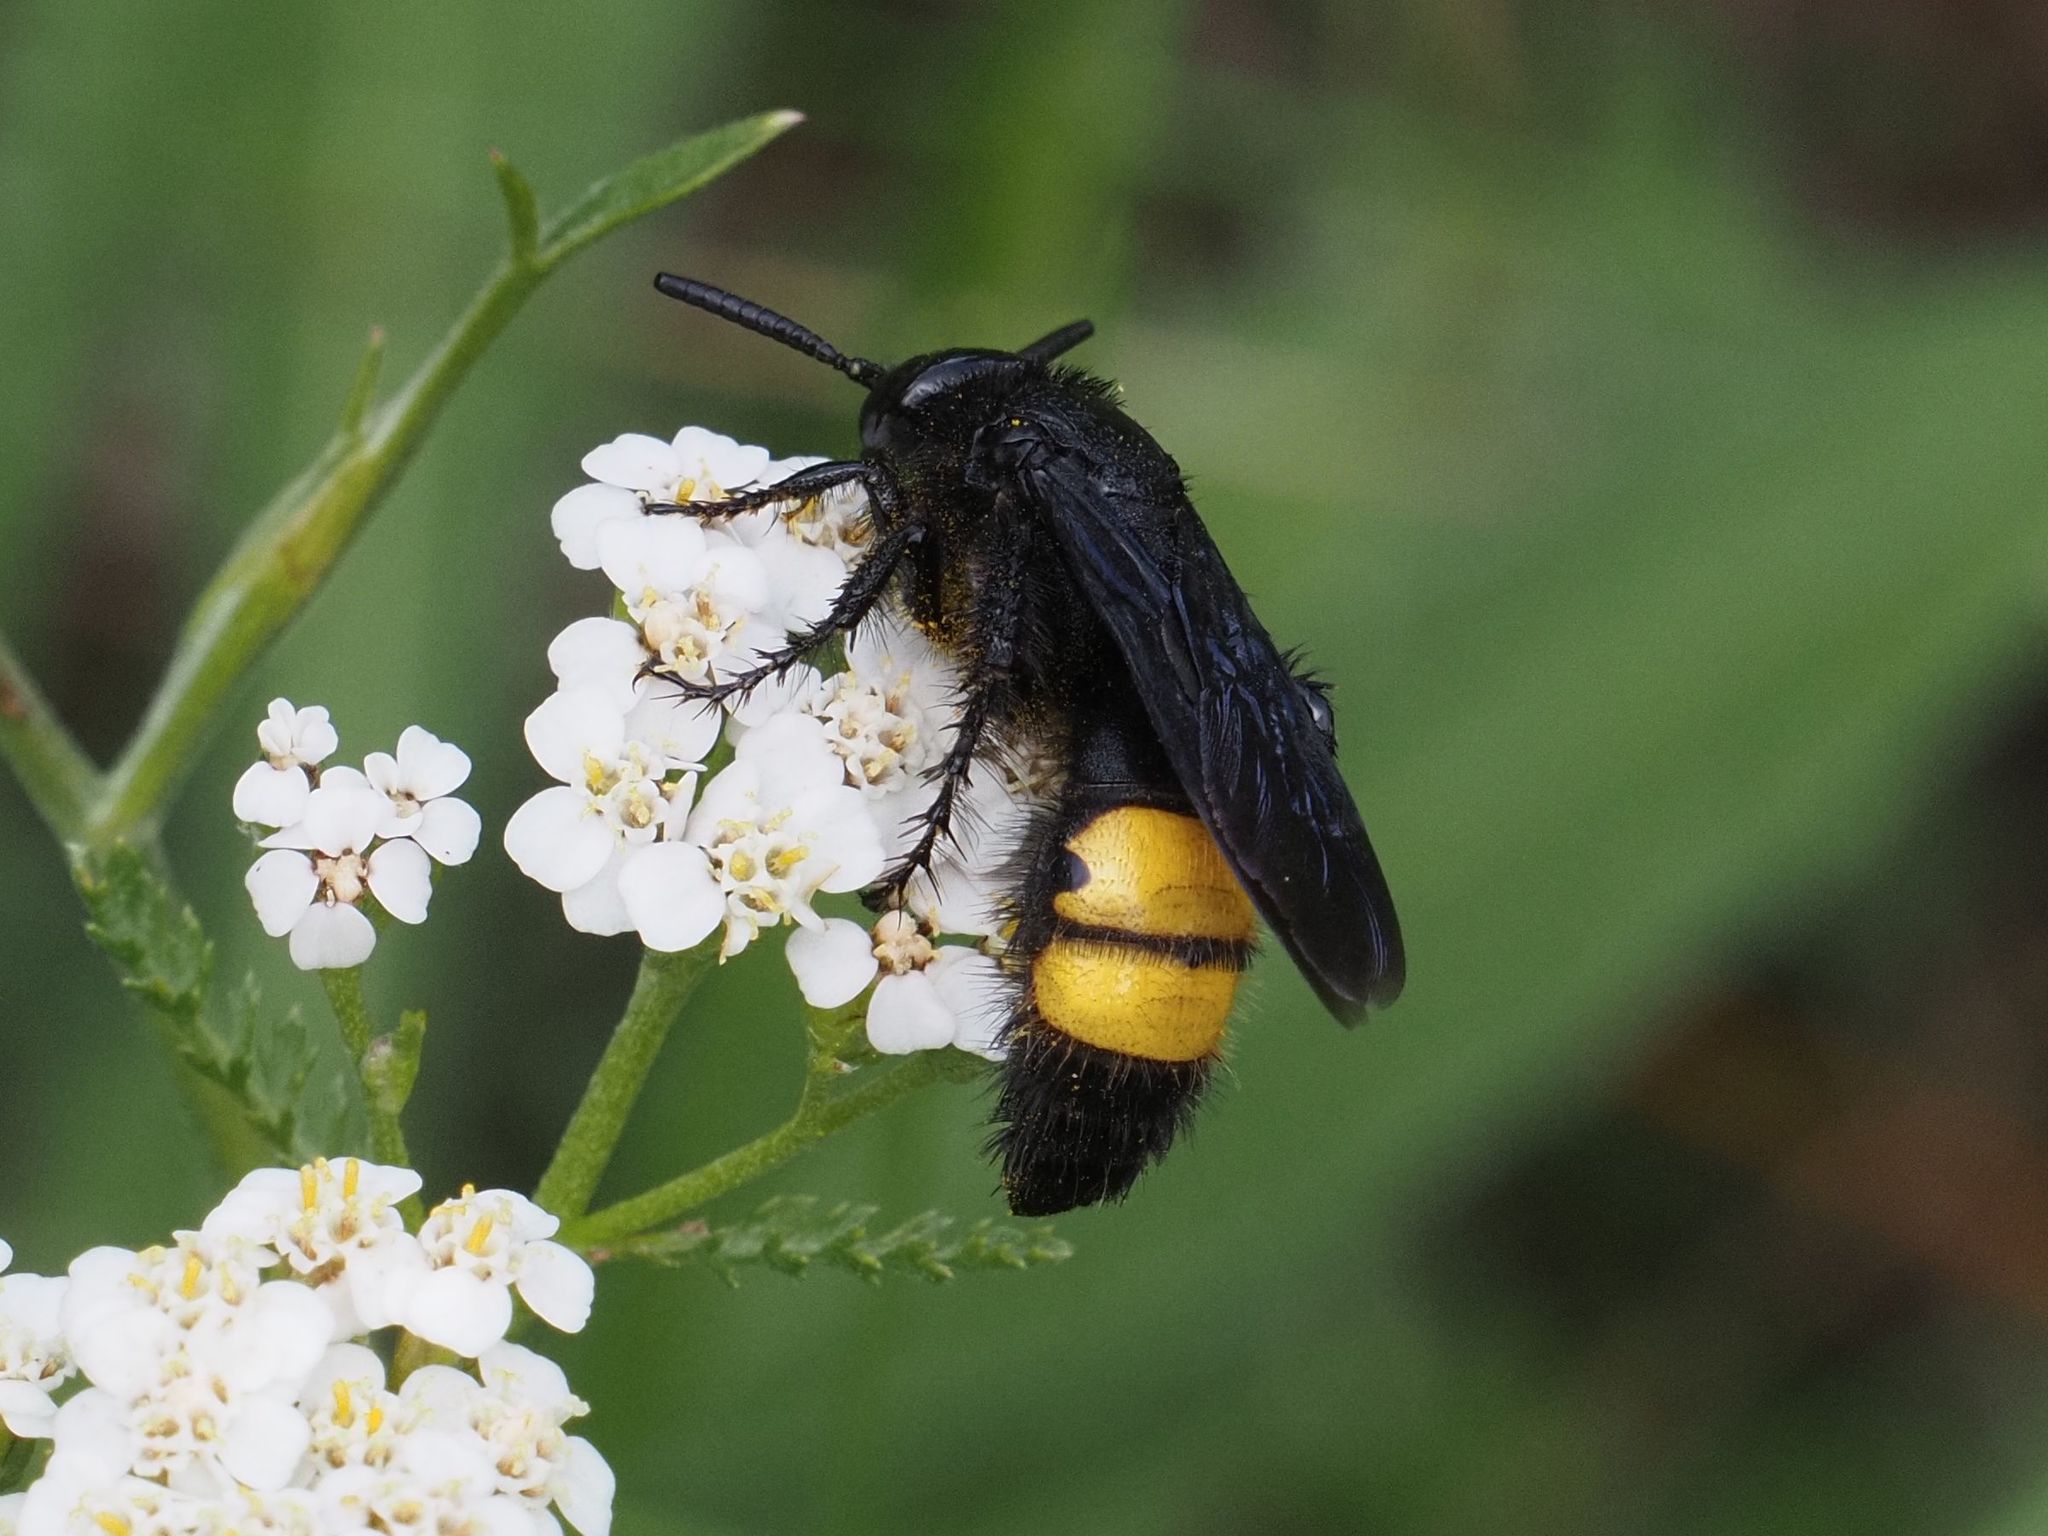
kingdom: Animalia
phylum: Arthropoda
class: Insecta
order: Hymenoptera
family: Scoliidae
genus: Scolia
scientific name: Scolia hirta
